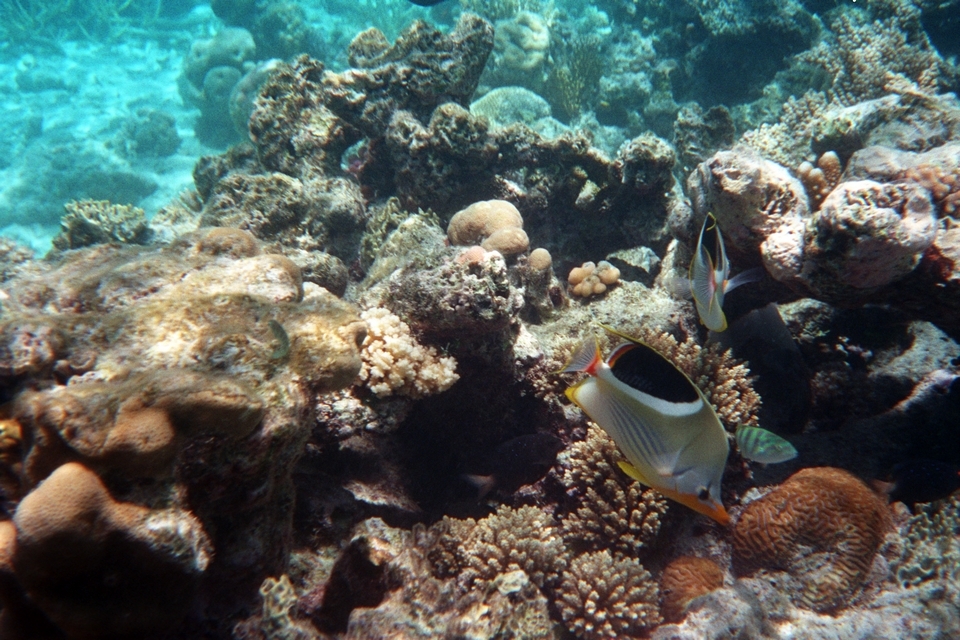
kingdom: Animalia
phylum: Chordata
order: Perciformes
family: Chaetodontidae
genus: Chaetodon
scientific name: Chaetodon ephippium
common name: Saddled butterflyfish
